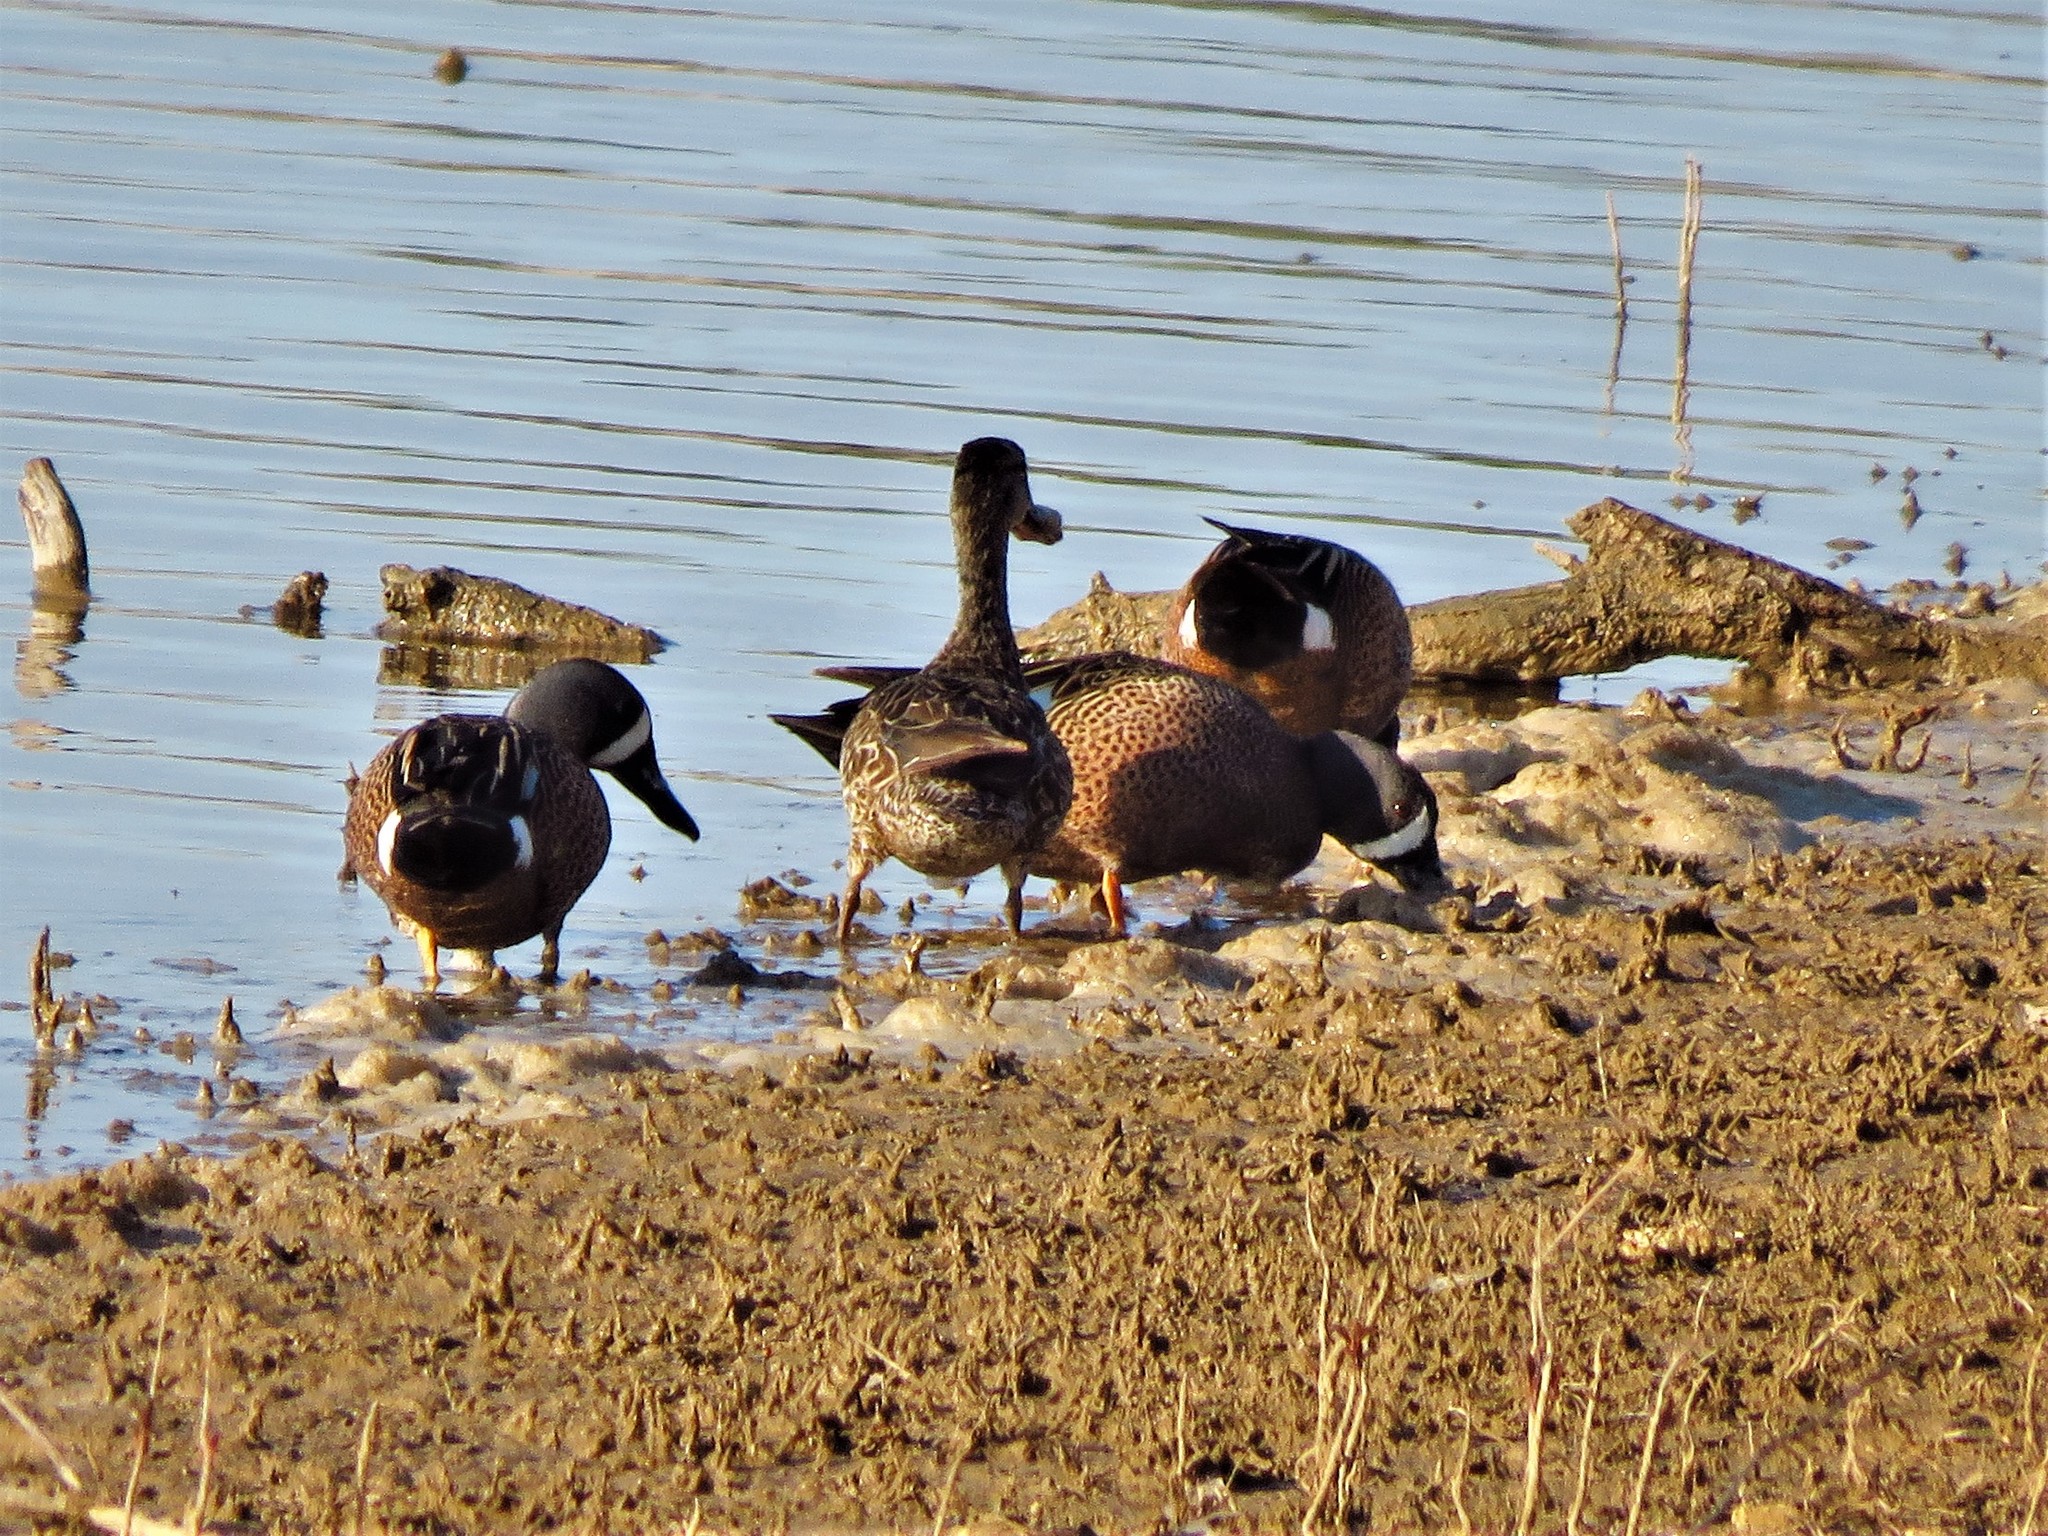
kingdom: Animalia
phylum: Chordata
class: Aves
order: Anseriformes
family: Anatidae
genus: Spatula
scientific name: Spatula discors
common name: Blue-winged teal
